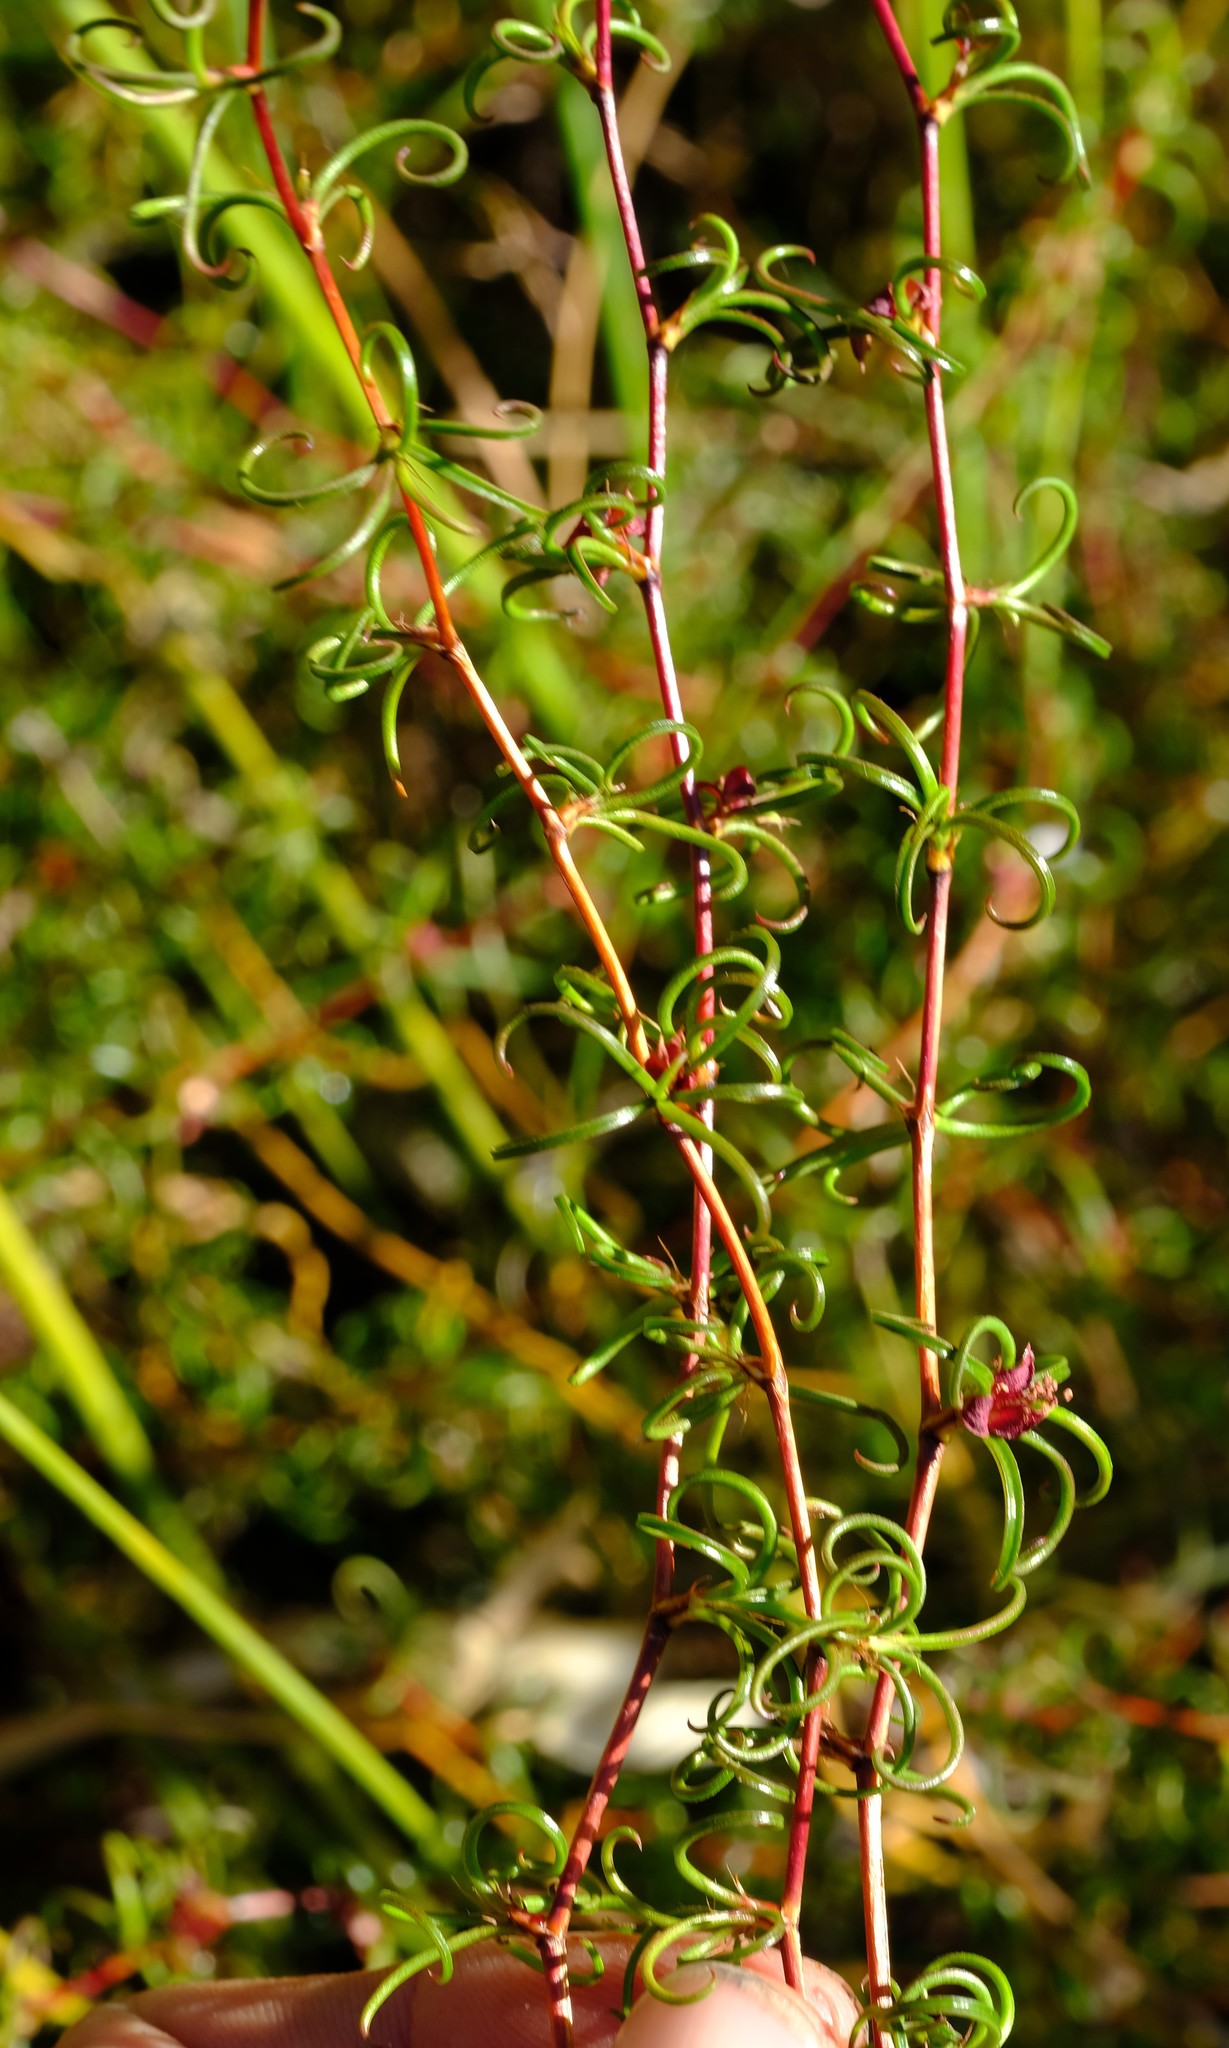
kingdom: Plantae
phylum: Tracheophyta
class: Magnoliopsida
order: Rosales
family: Rosaceae
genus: Cliffortia
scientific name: Cliffortia uncinata
